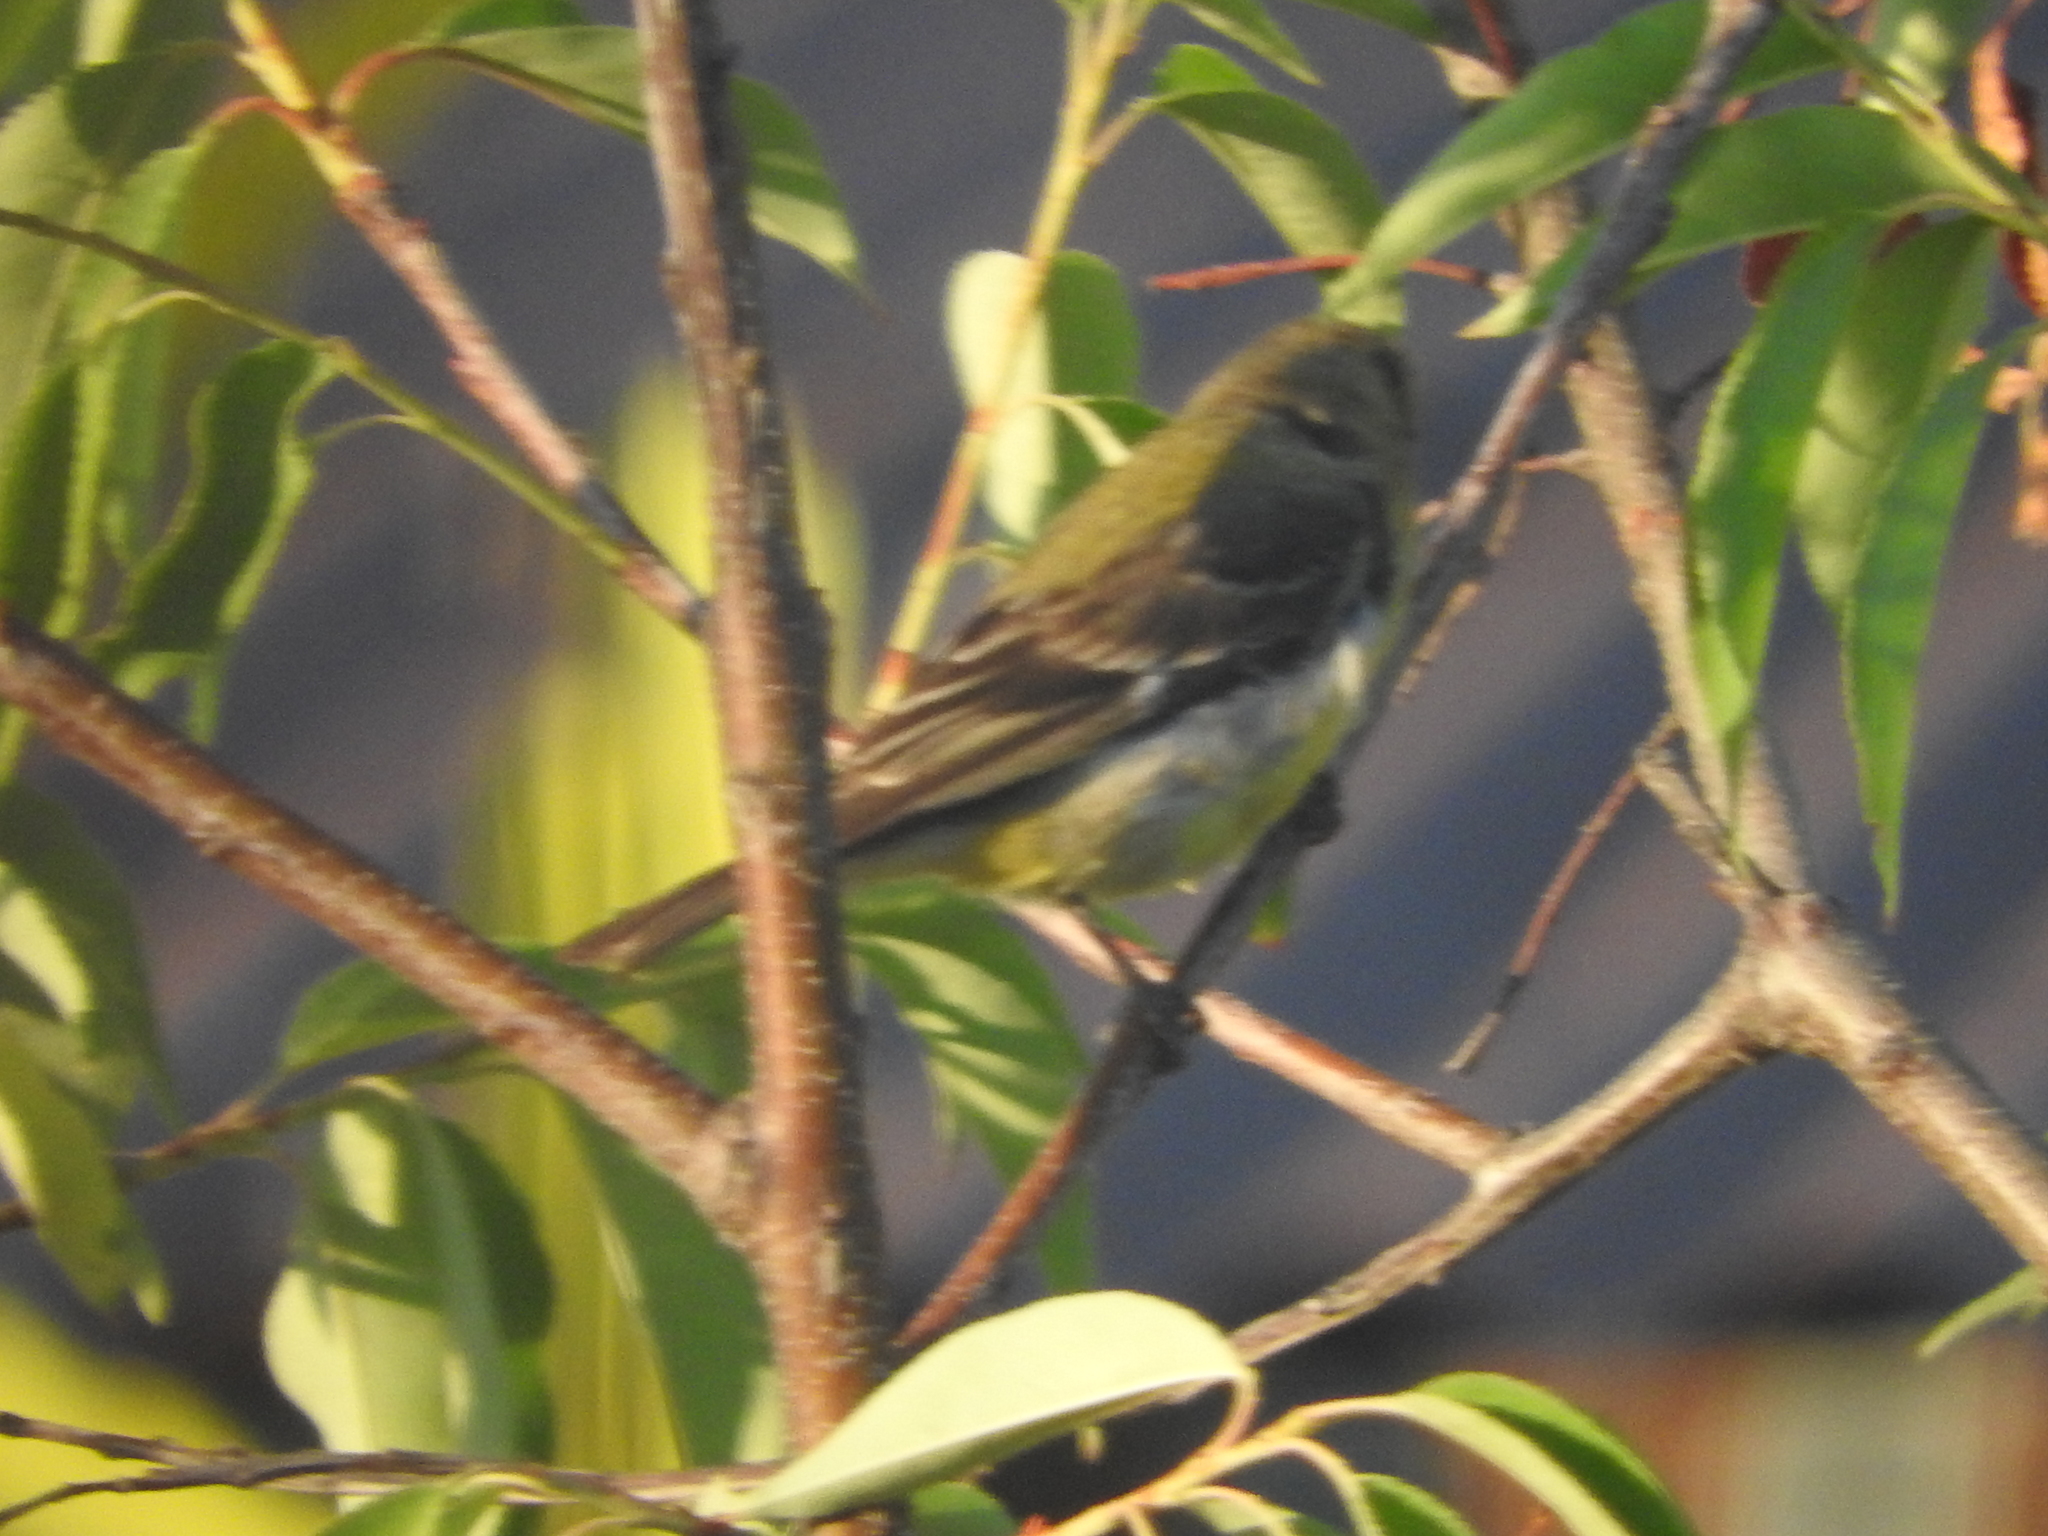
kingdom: Animalia
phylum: Chordata
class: Aves
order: Passeriformes
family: Fringillidae
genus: Spinus
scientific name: Spinus psaltria
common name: Lesser goldfinch
